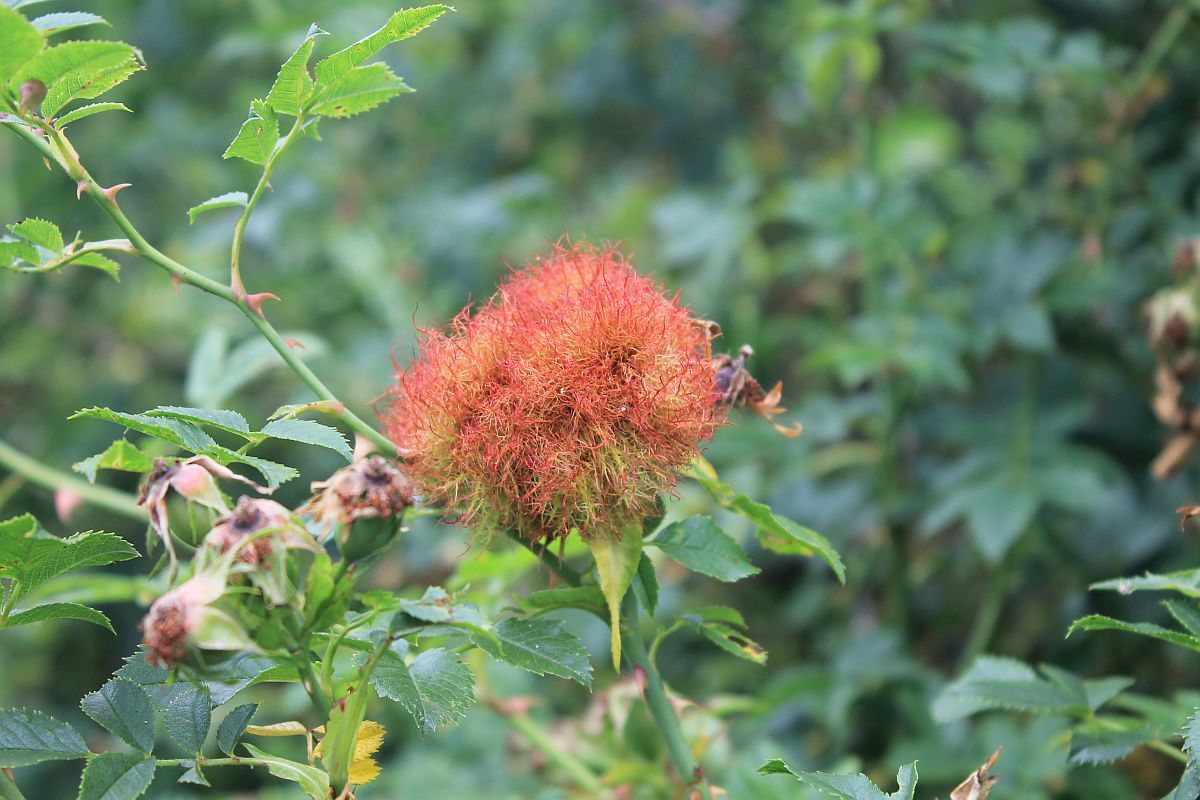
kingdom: Animalia
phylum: Arthropoda
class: Insecta
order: Hymenoptera
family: Cynipidae
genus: Diplolepis
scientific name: Diplolepis rosae
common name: Bedeguar gall
